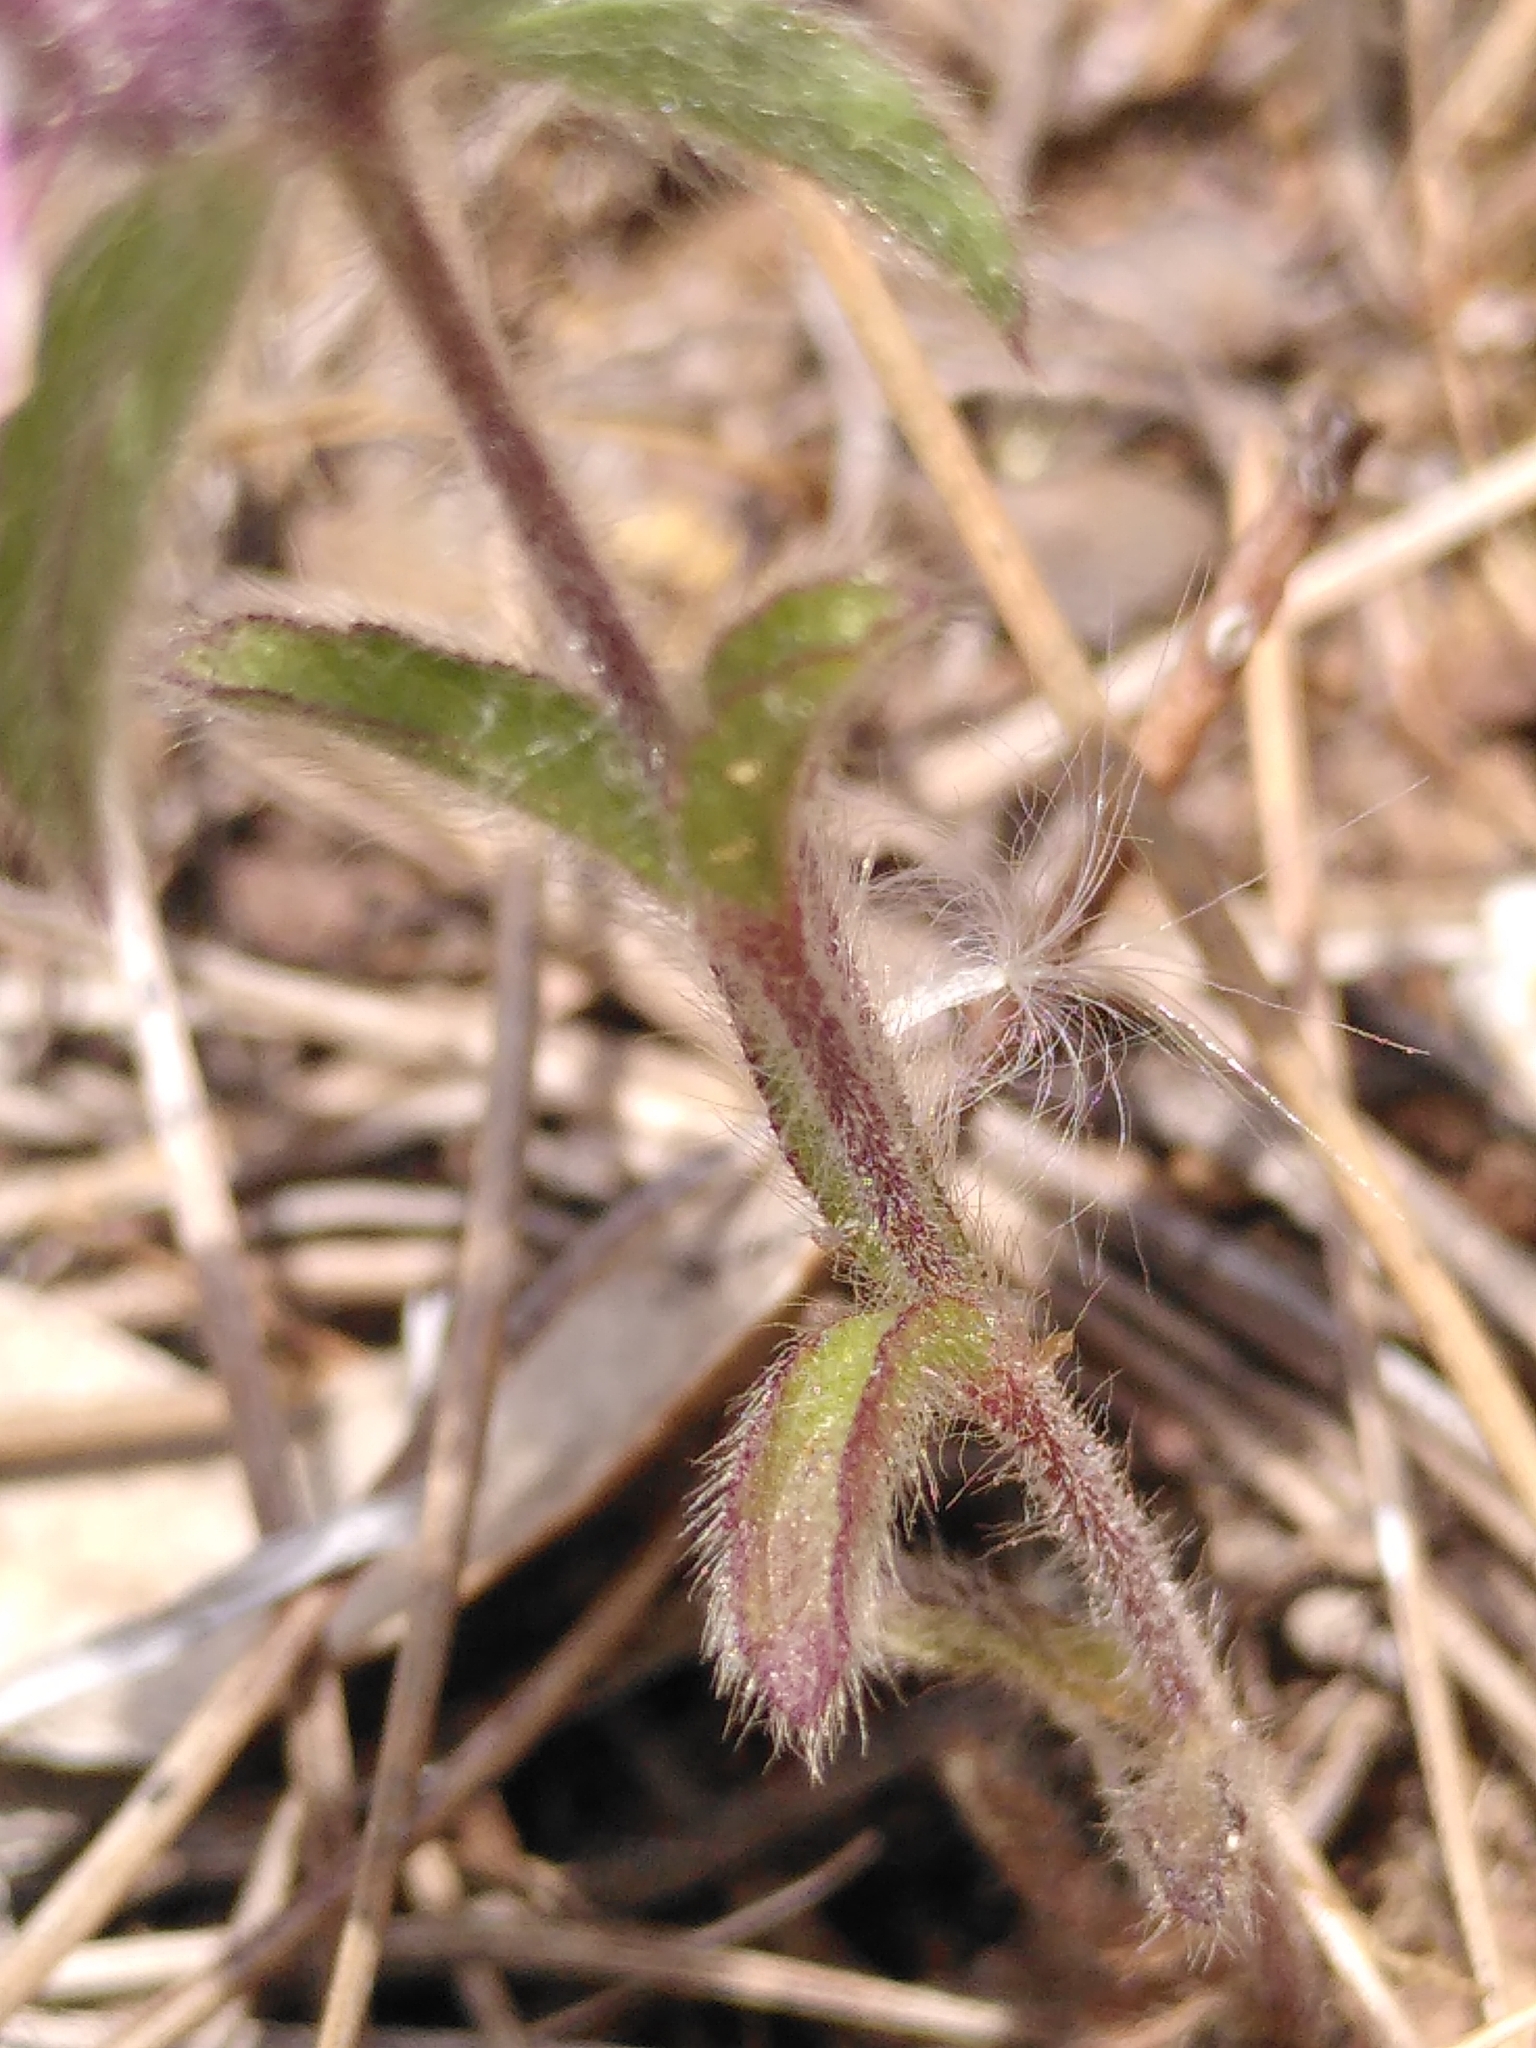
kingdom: Plantae
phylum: Tracheophyta
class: Magnoliopsida
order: Lamiales
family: Lamiaceae
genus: Sideritis
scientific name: Sideritis romana
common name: Simplebeak ironwort
